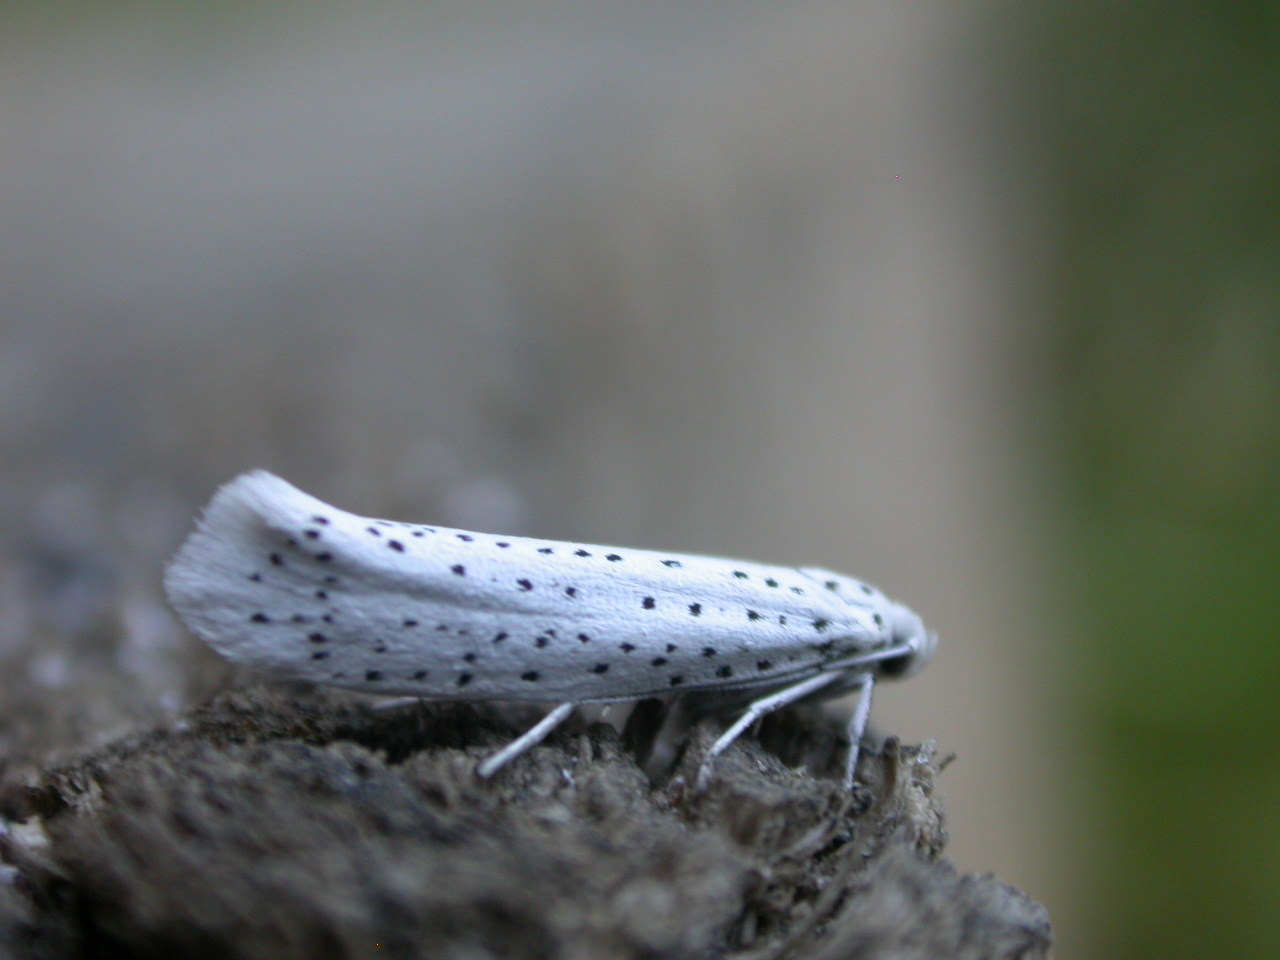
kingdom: Animalia
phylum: Arthropoda
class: Insecta
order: Lepidoptera
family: Yponomeutidae
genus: Yponomeuta
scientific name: Yponomeuta evonymella
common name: Bird-cherry ermine
